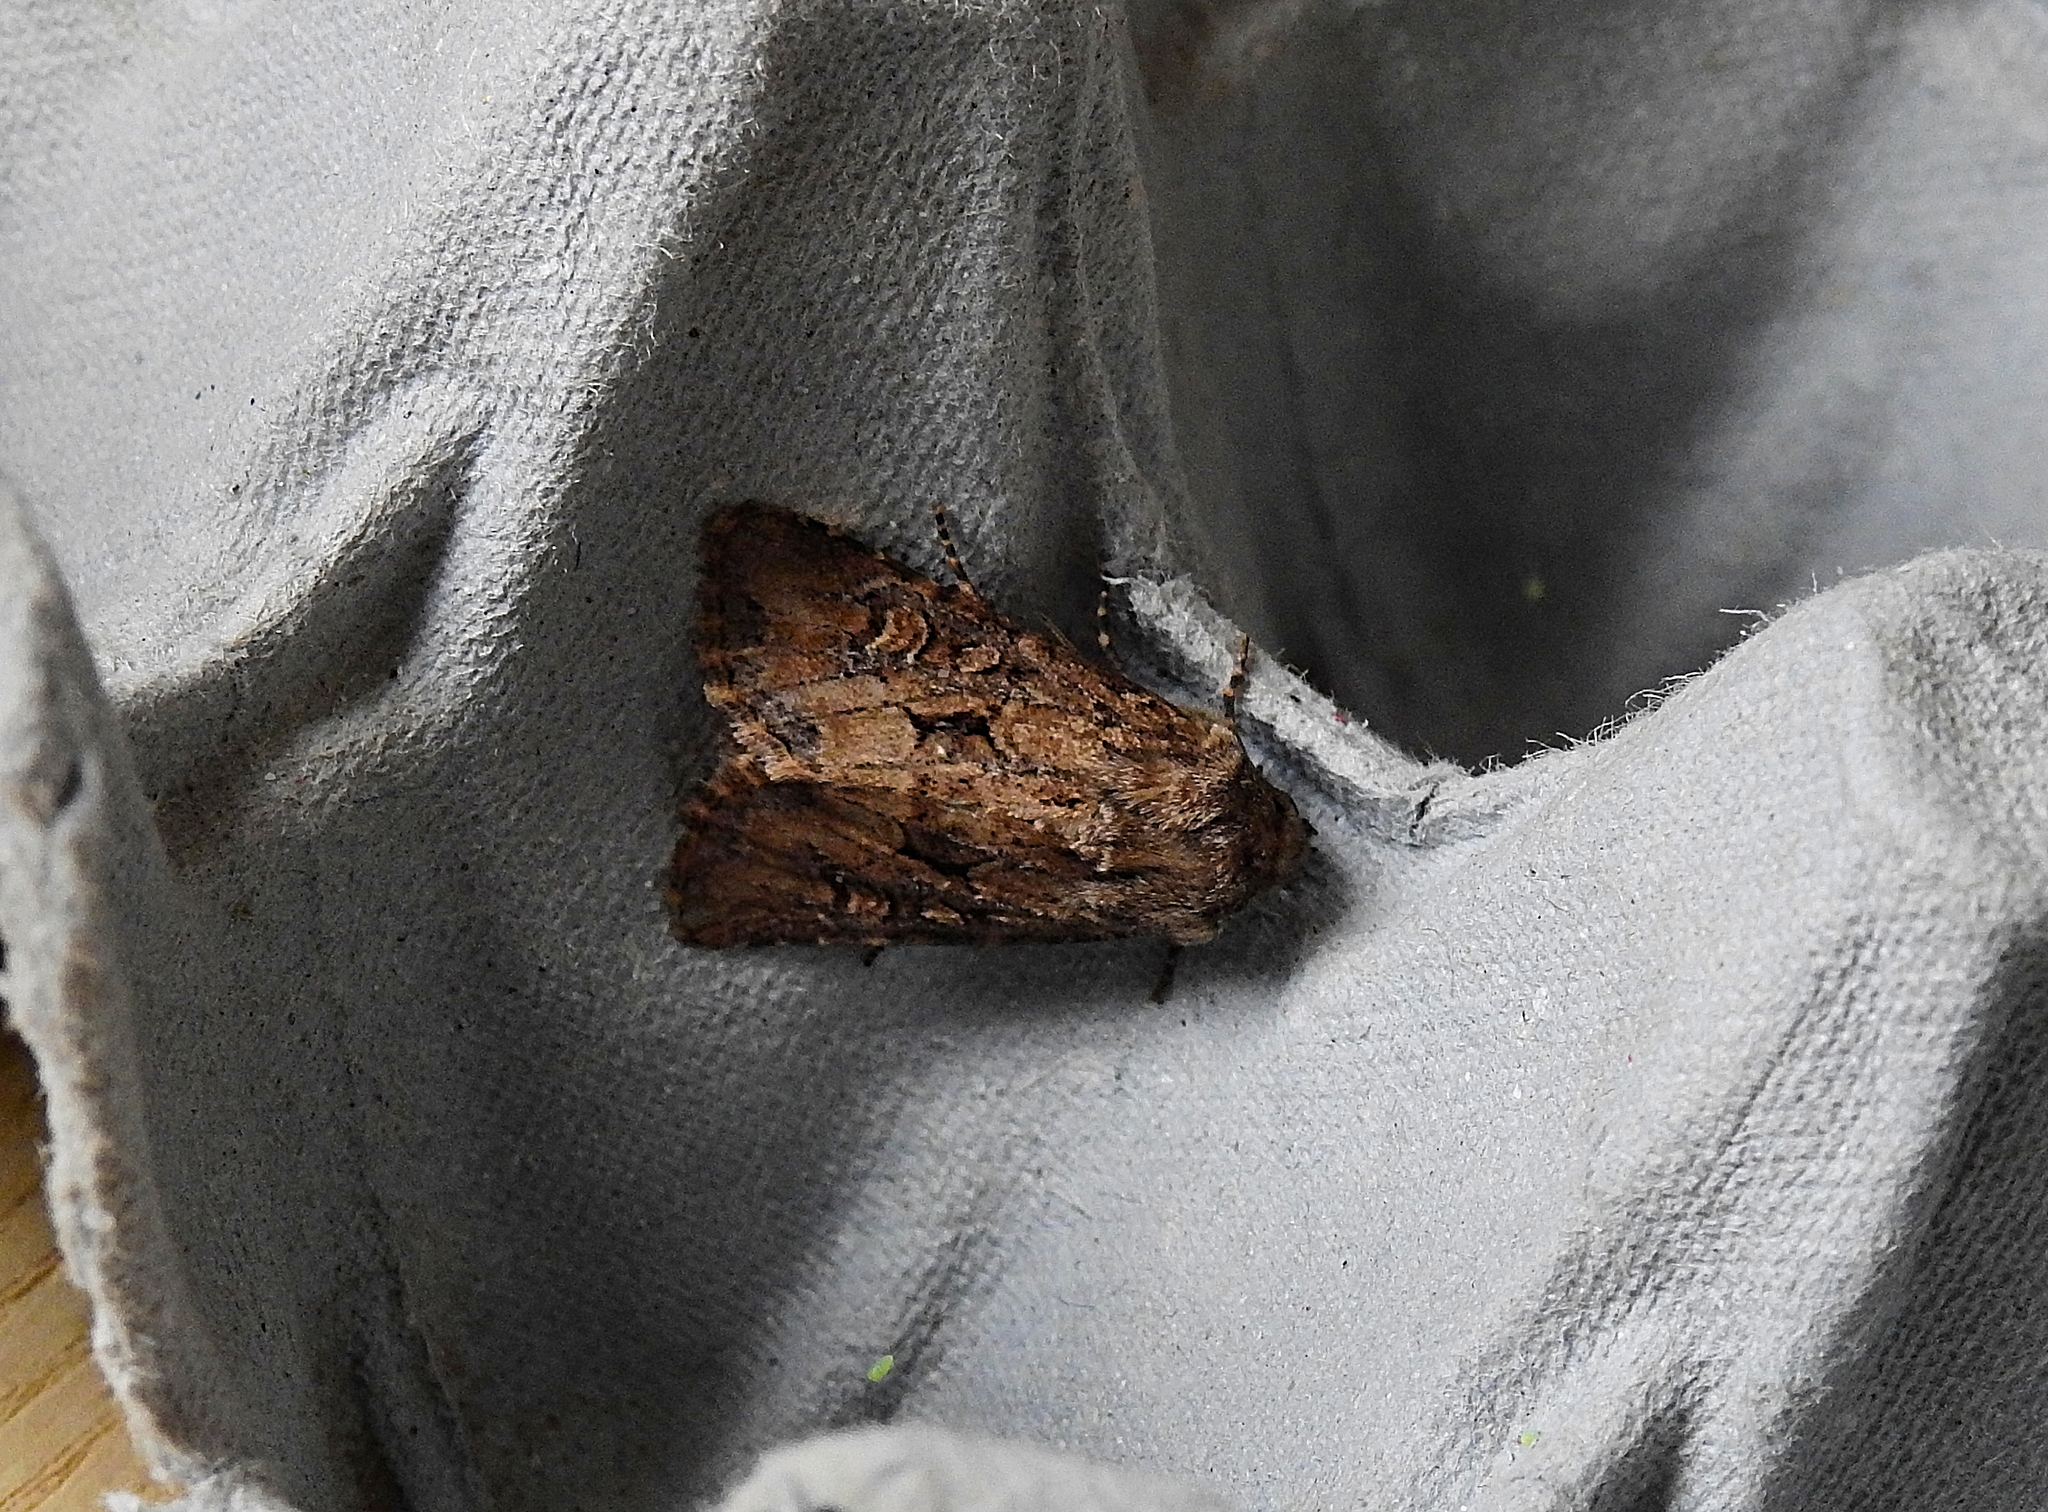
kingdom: Animalia
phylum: Arthropoda
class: Insecta
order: Lepidoptera
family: Noctuidae
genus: Luperina
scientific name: Luperina testacea
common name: Flounced rustic
